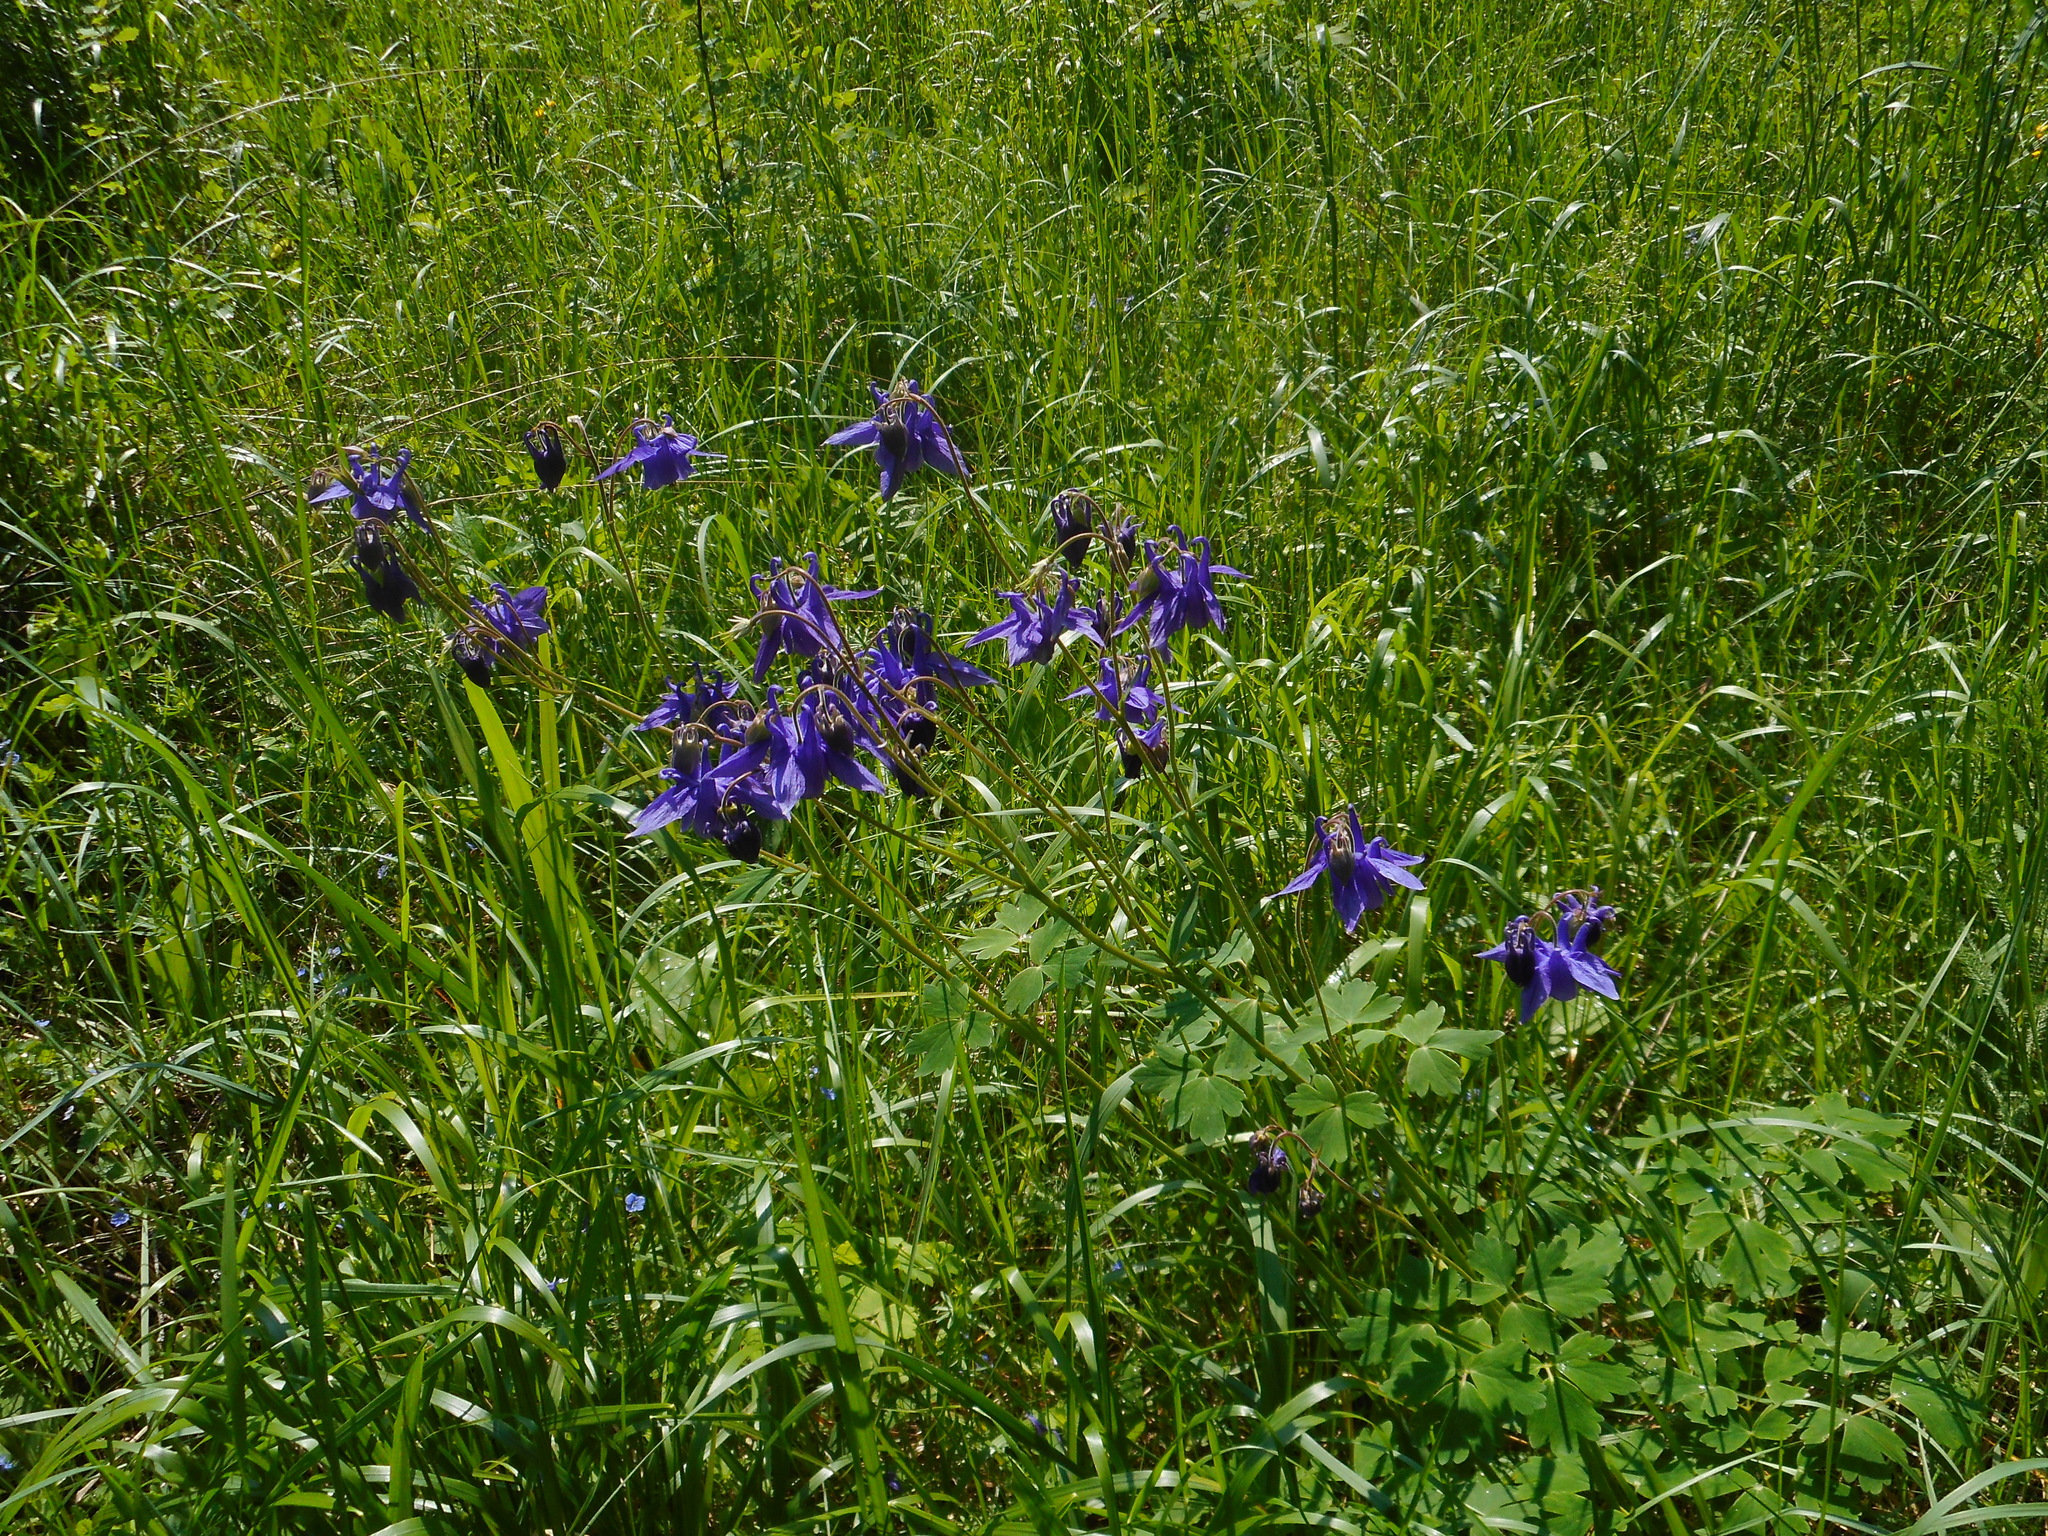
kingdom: Plantae
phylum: Tracheophyta
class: Magnoliopsida
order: Ranunculales
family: Ranunculaceae
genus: Aquilegia
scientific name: Aquilegia vulgaris
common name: Columbine
